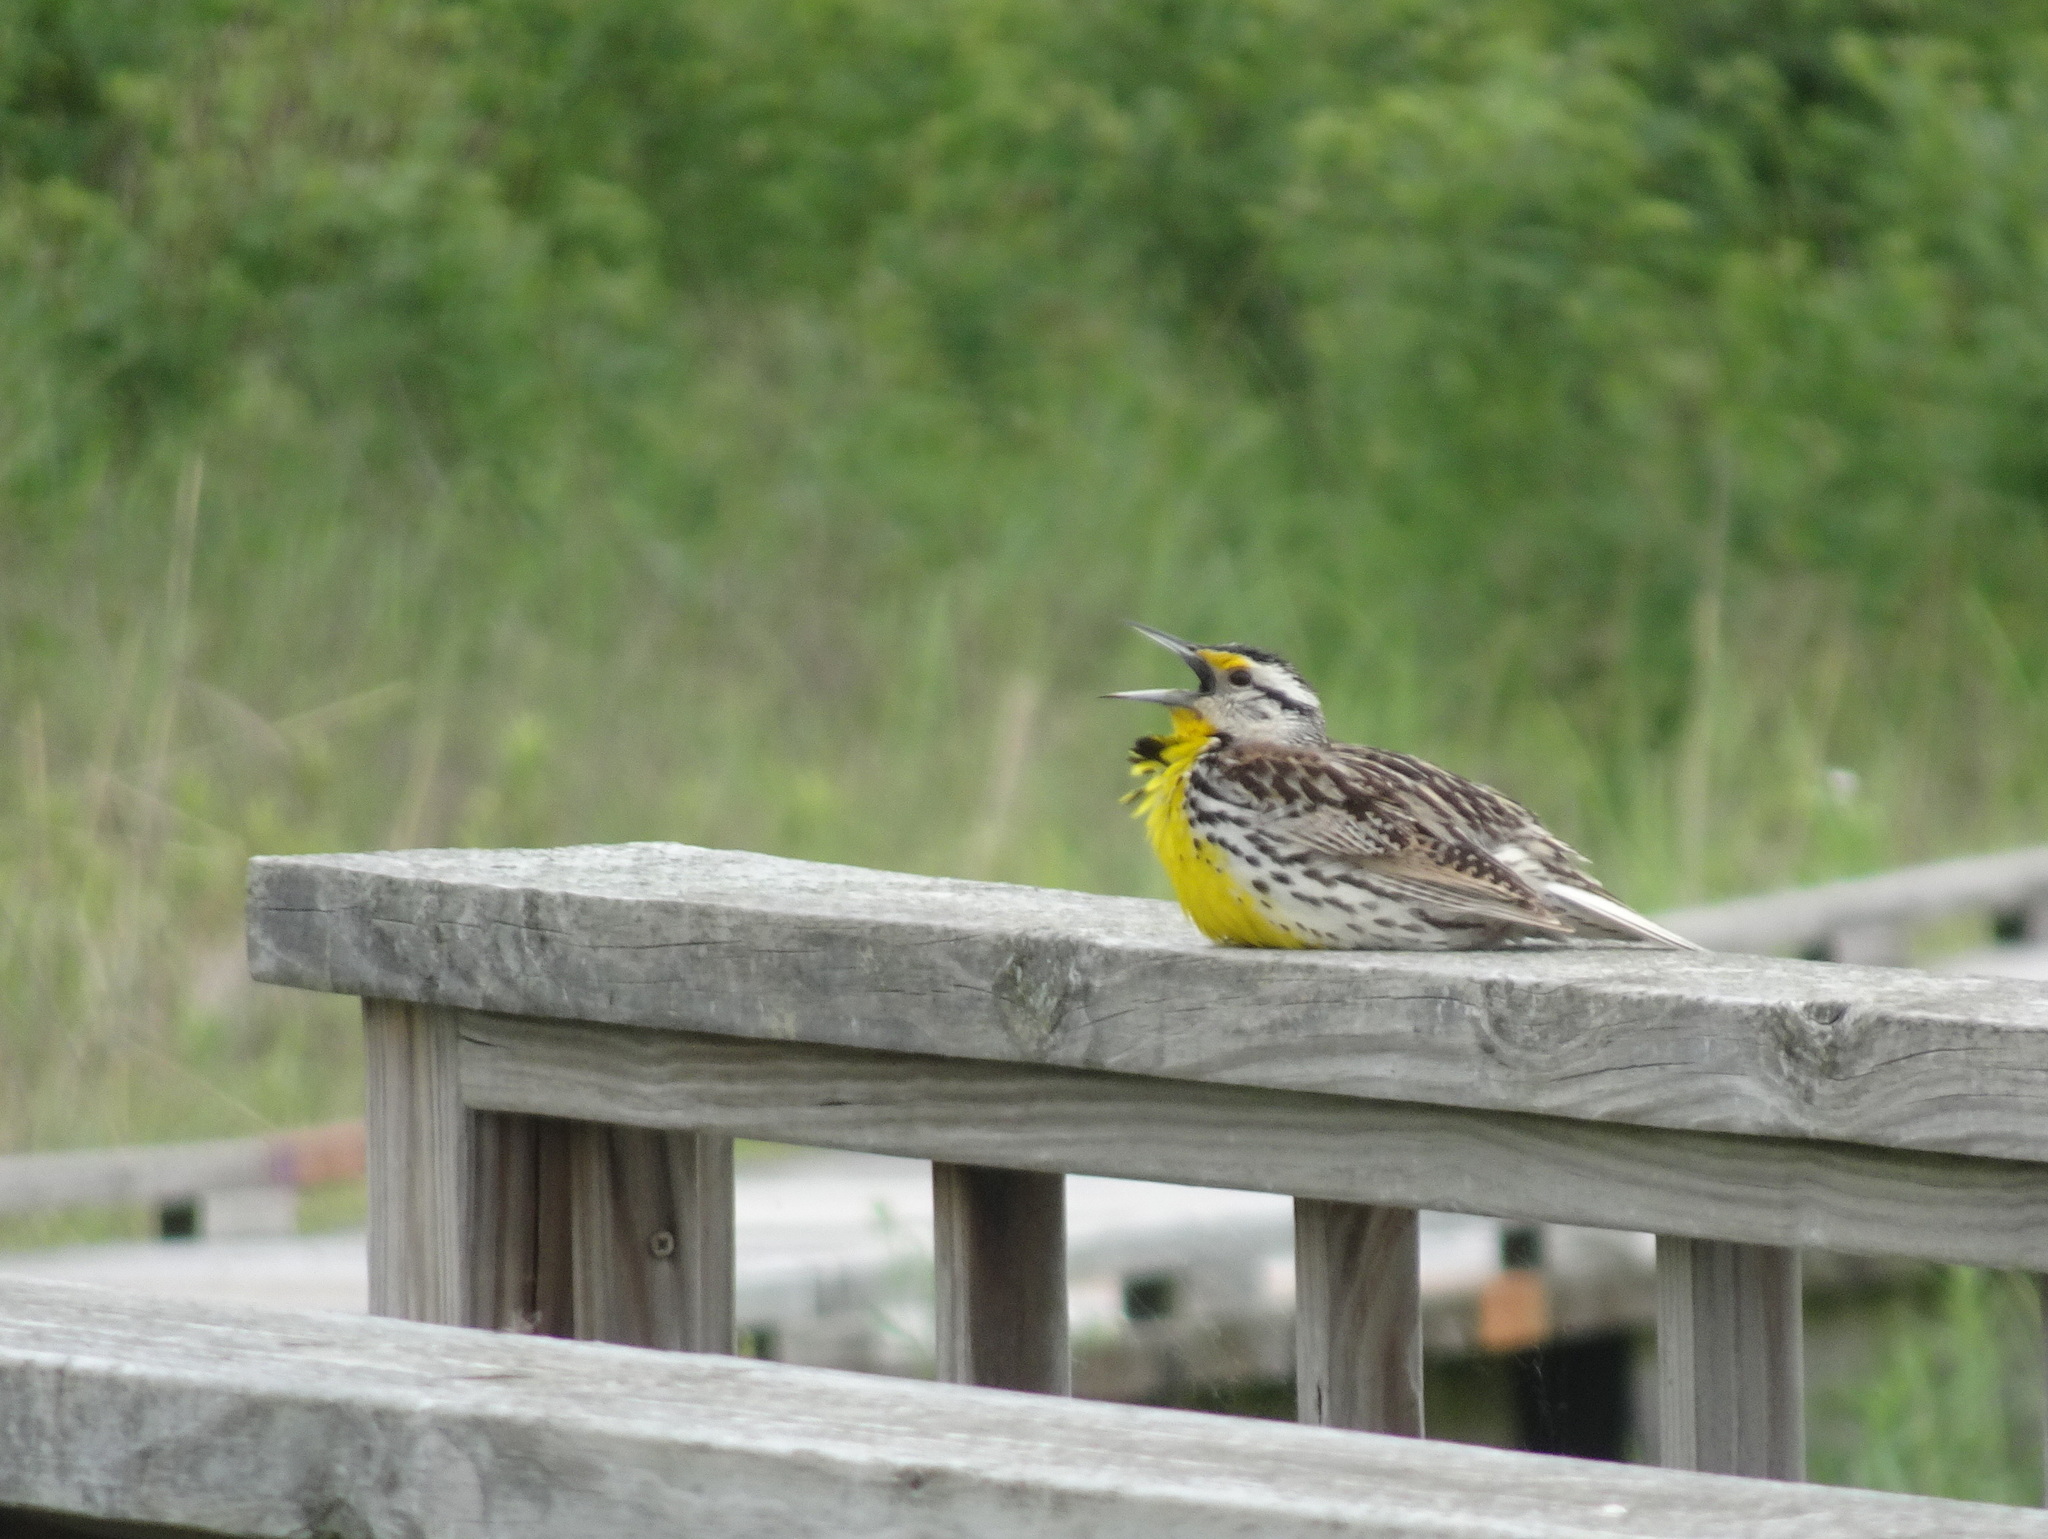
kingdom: Animalia
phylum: Chordata
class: Aves
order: Passeriformes
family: Icteridae
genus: Sturnella
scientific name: Sturnella magna
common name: Eastern meadowlark
